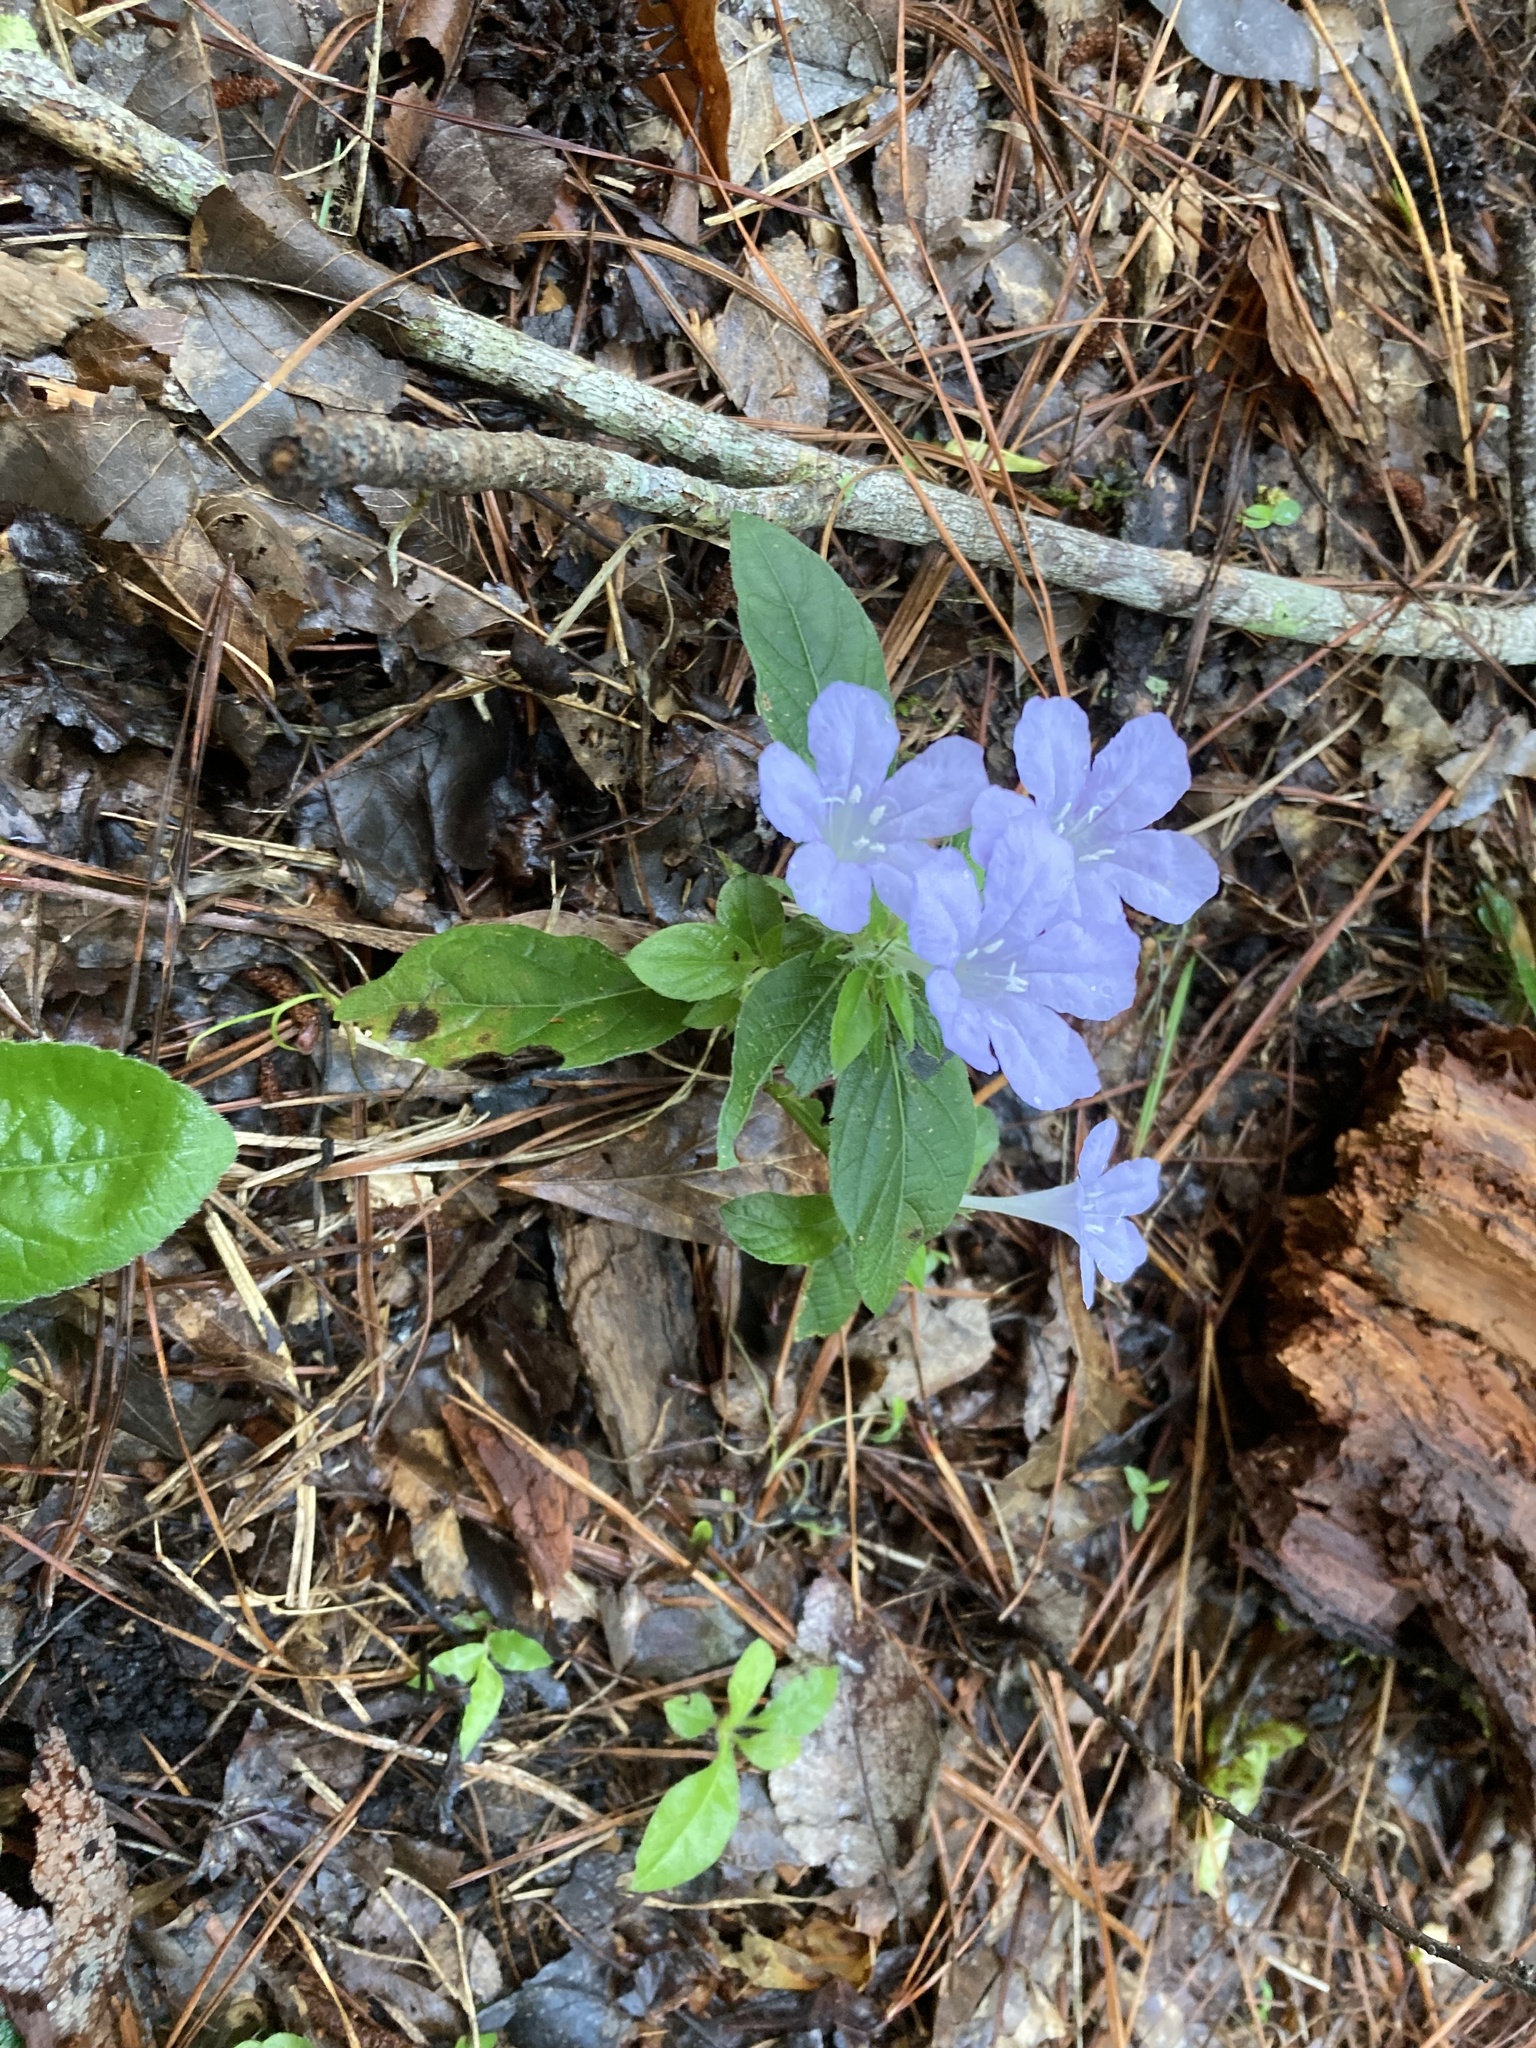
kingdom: Plantae
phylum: Tracheophyta
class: Magnoliopsida
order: Lamiales
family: Acanthaceae
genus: Ruellia
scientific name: Ruellia caroliniensis
